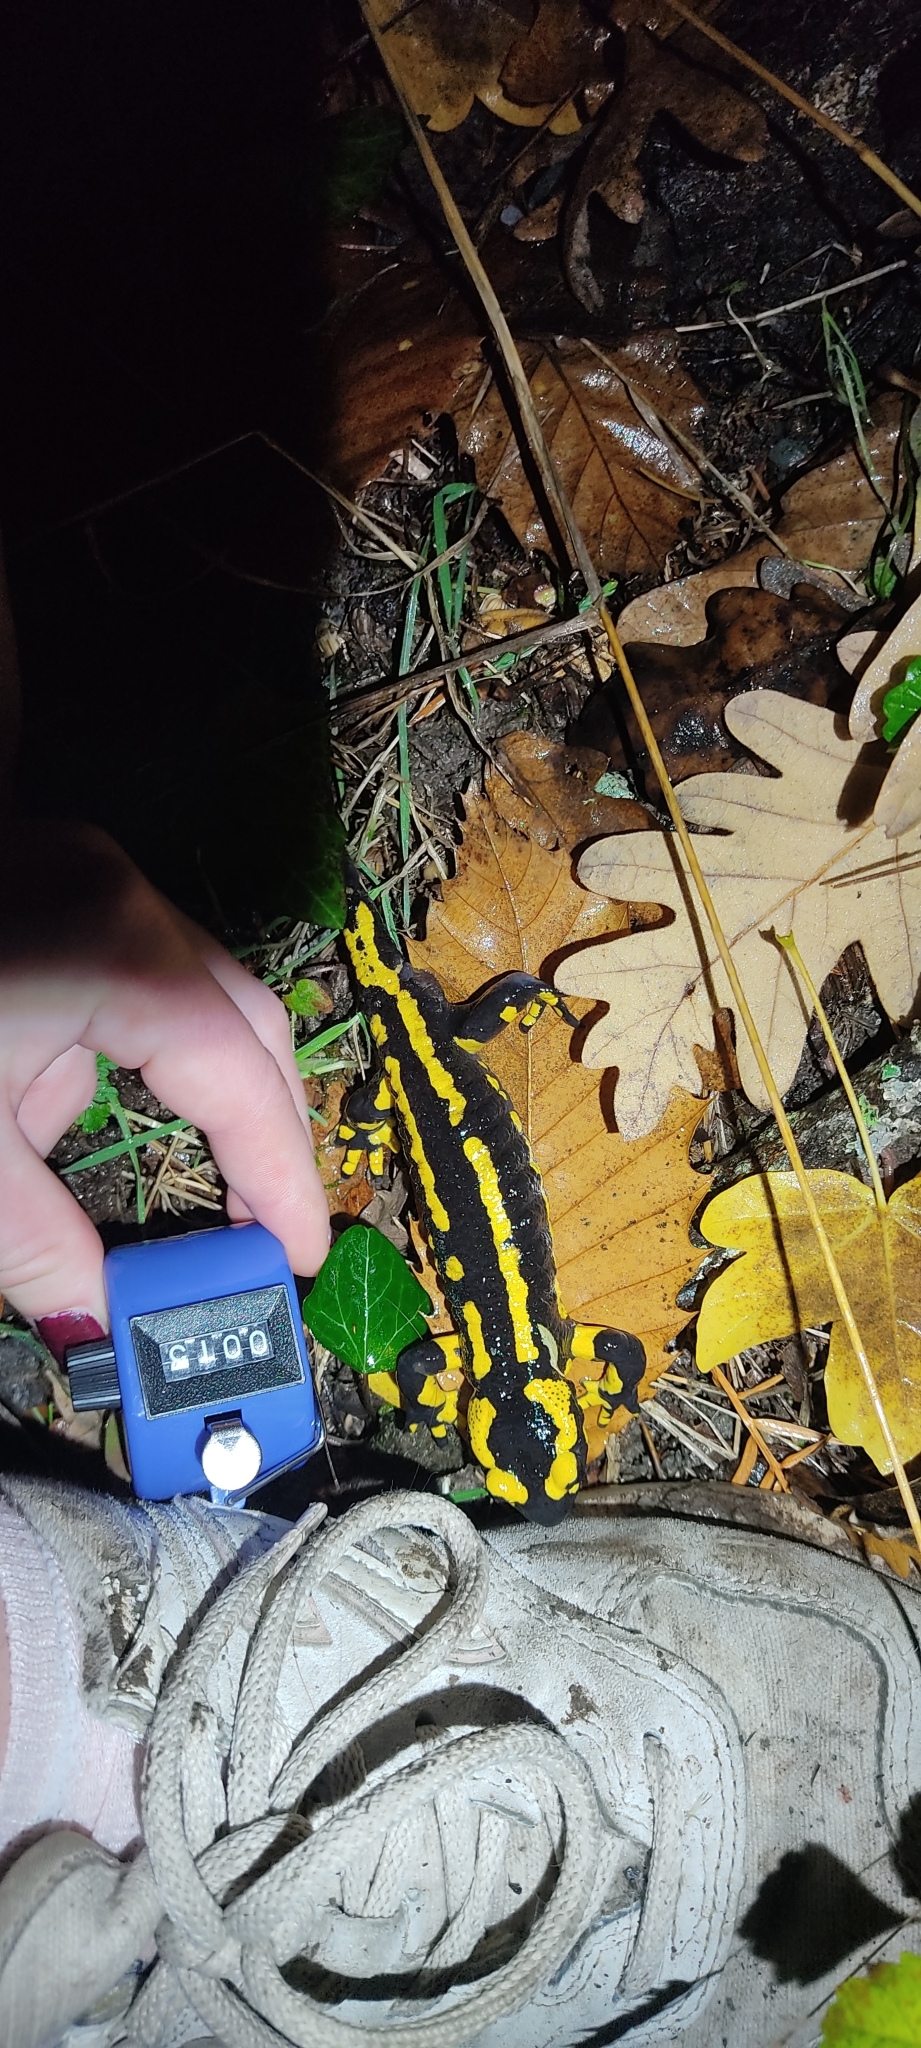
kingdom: Animalia
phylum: Chordata
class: Amphibia
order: Caudata
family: Salamandridae
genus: Salamandra
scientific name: Salamandra salamandra
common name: Fire salamander
